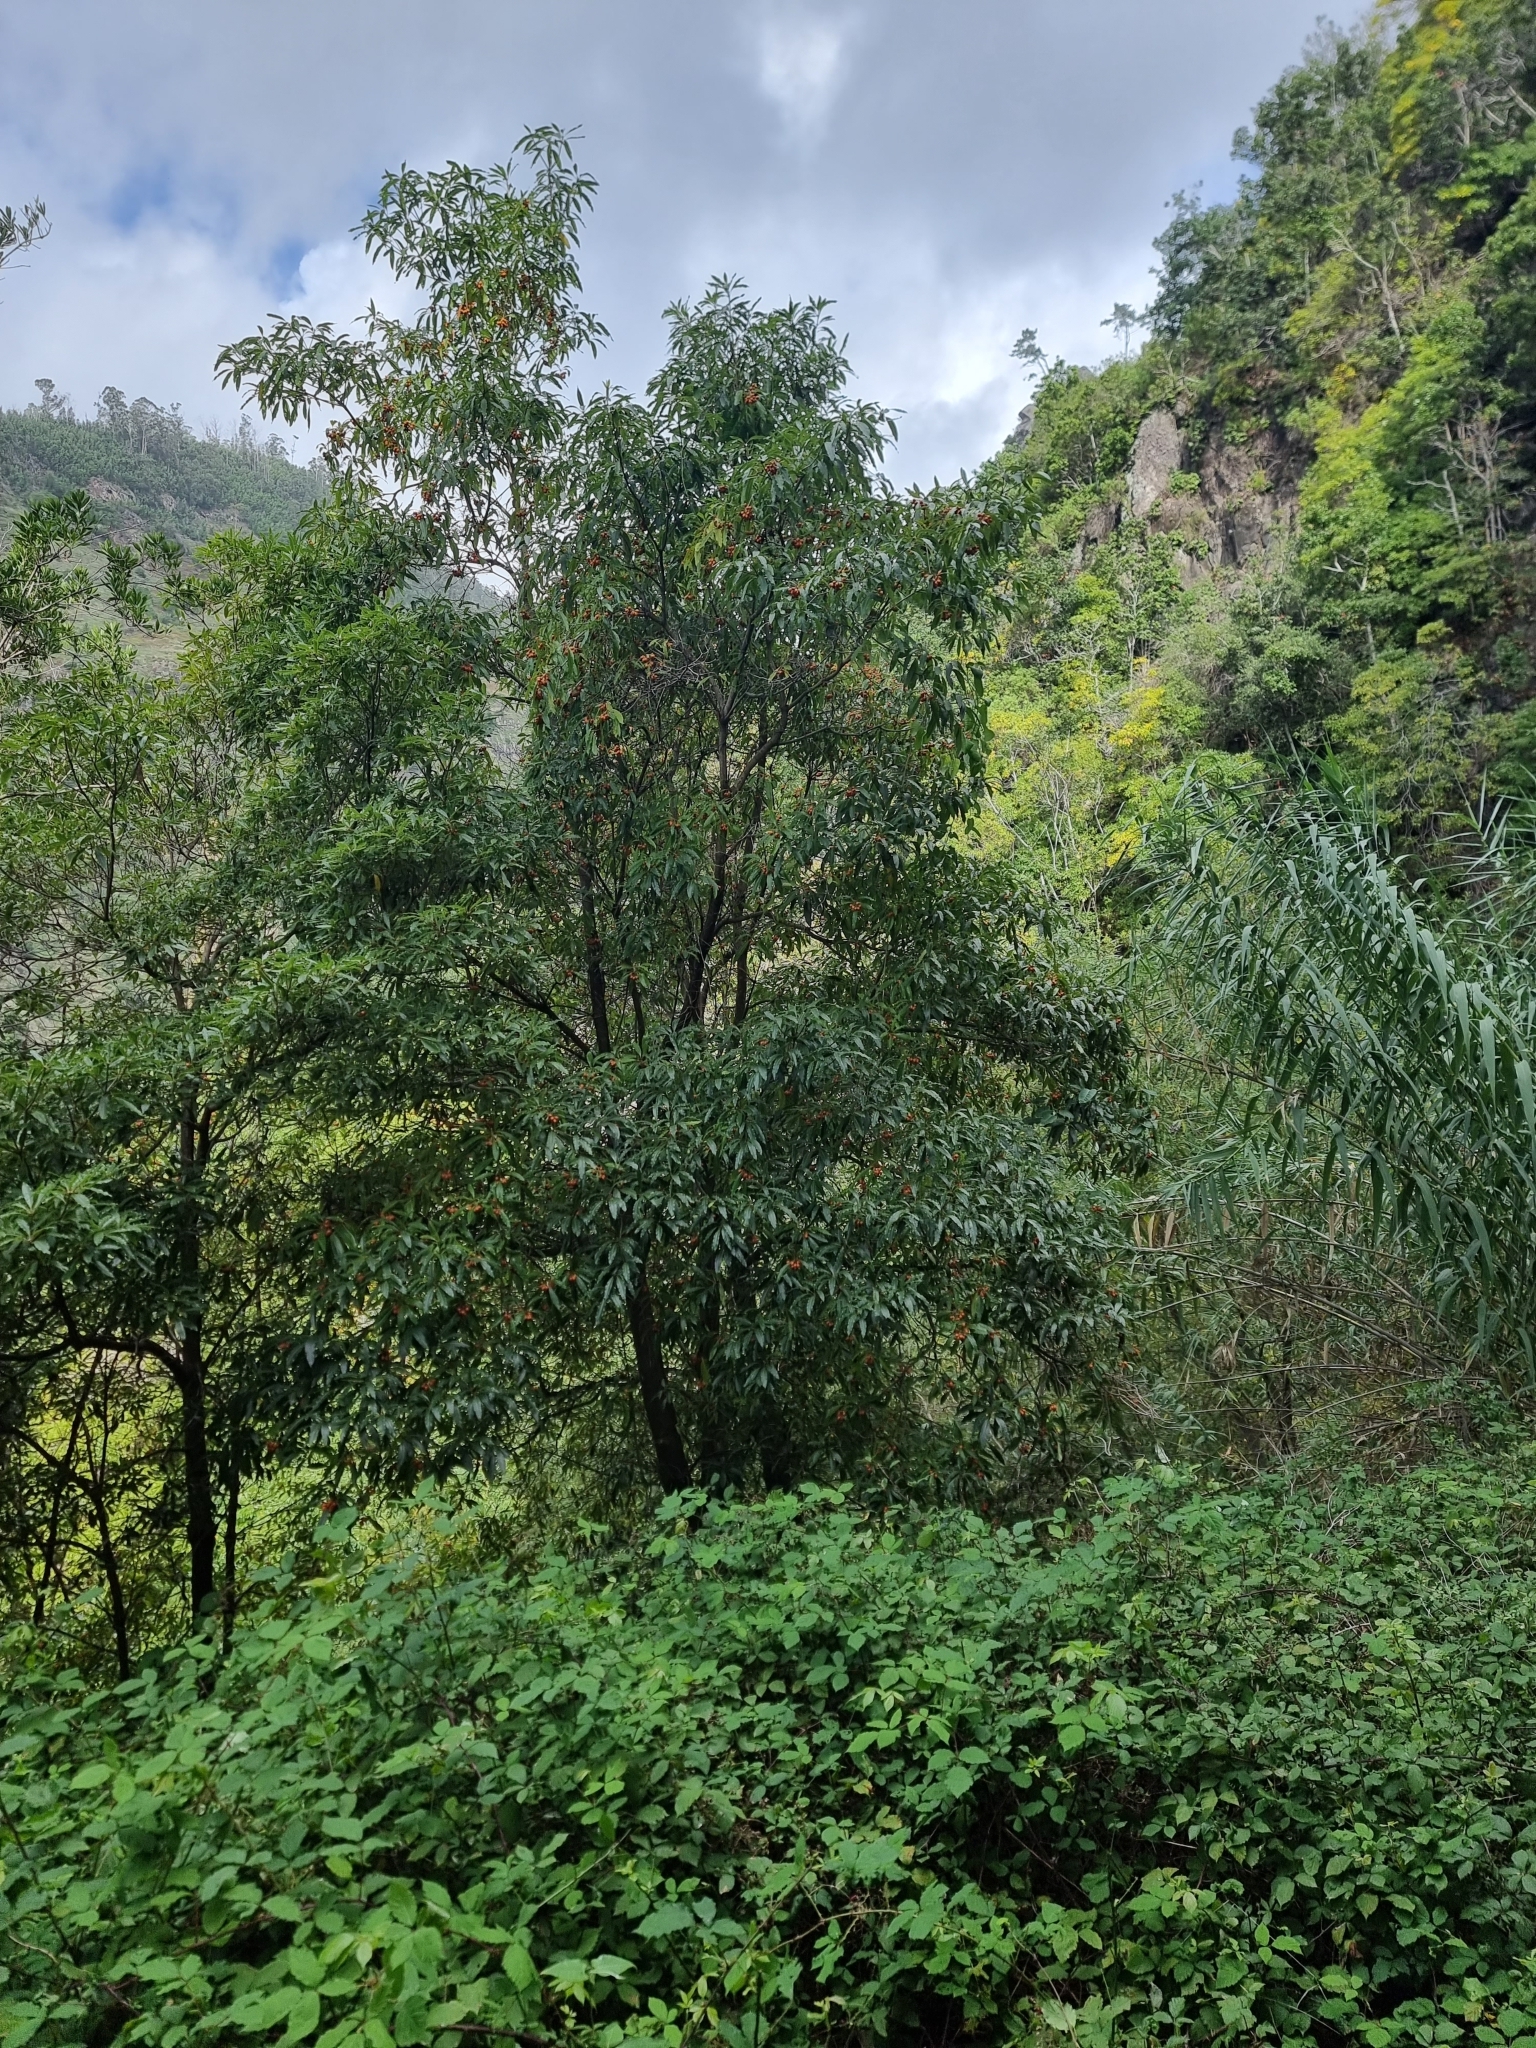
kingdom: Plantae
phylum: Tracheophyta
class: Magnoliopsida
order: Apiales
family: Pittosporaceae
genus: Pittosporum
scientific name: Pittosporum undulatum
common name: Australian cheesewood
